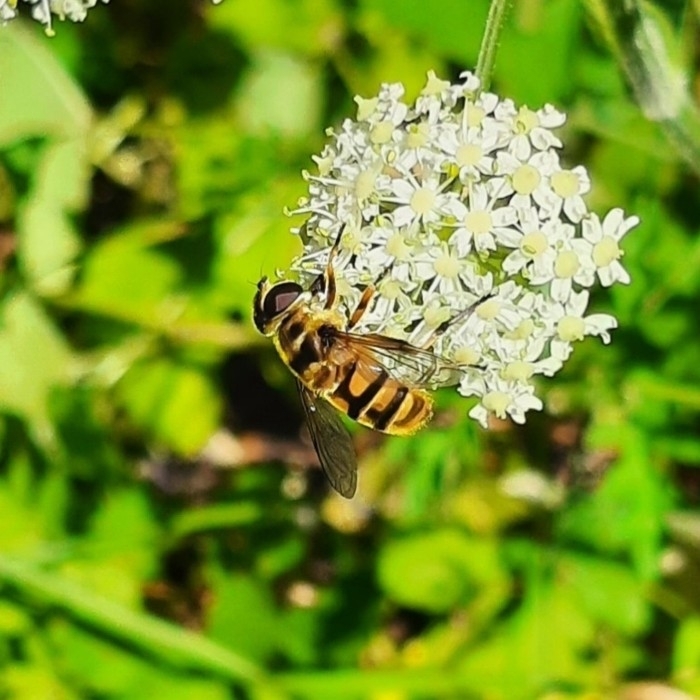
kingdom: Animalia
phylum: Arthropoda
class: Insecta
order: Diptera
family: Syrphidae
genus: Myathropa
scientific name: Myathropa florea
